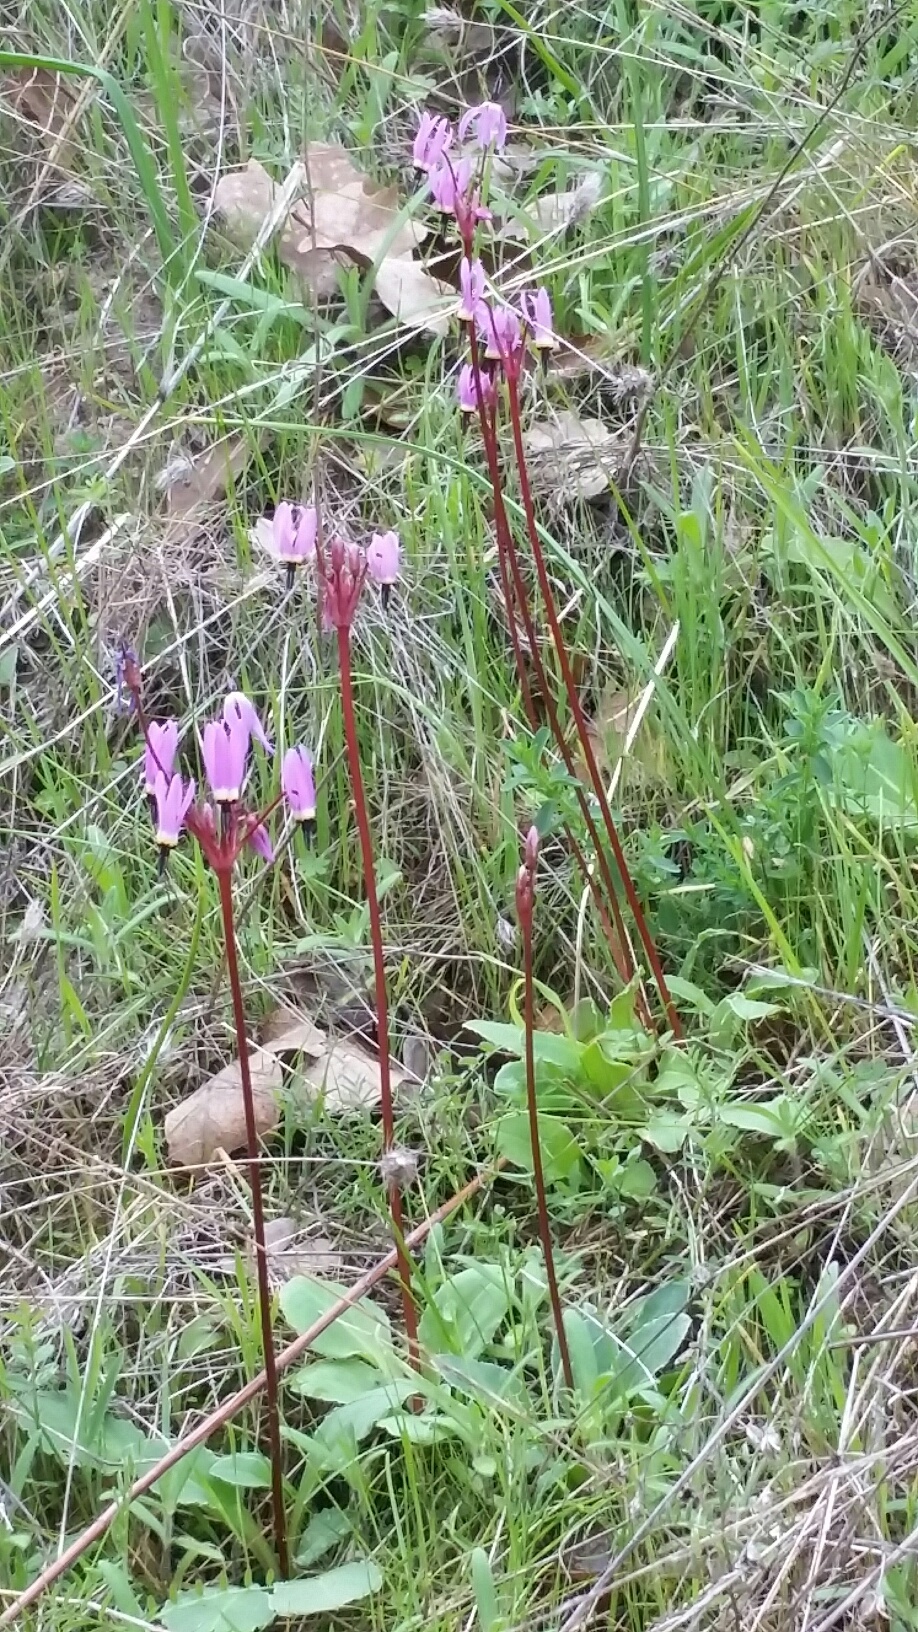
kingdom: Plantae
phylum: Tracheophyta
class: Magnoliopsida
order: Ericales
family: Primulaceae
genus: Dodecatheon
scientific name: Dodecatheon hendersonii
